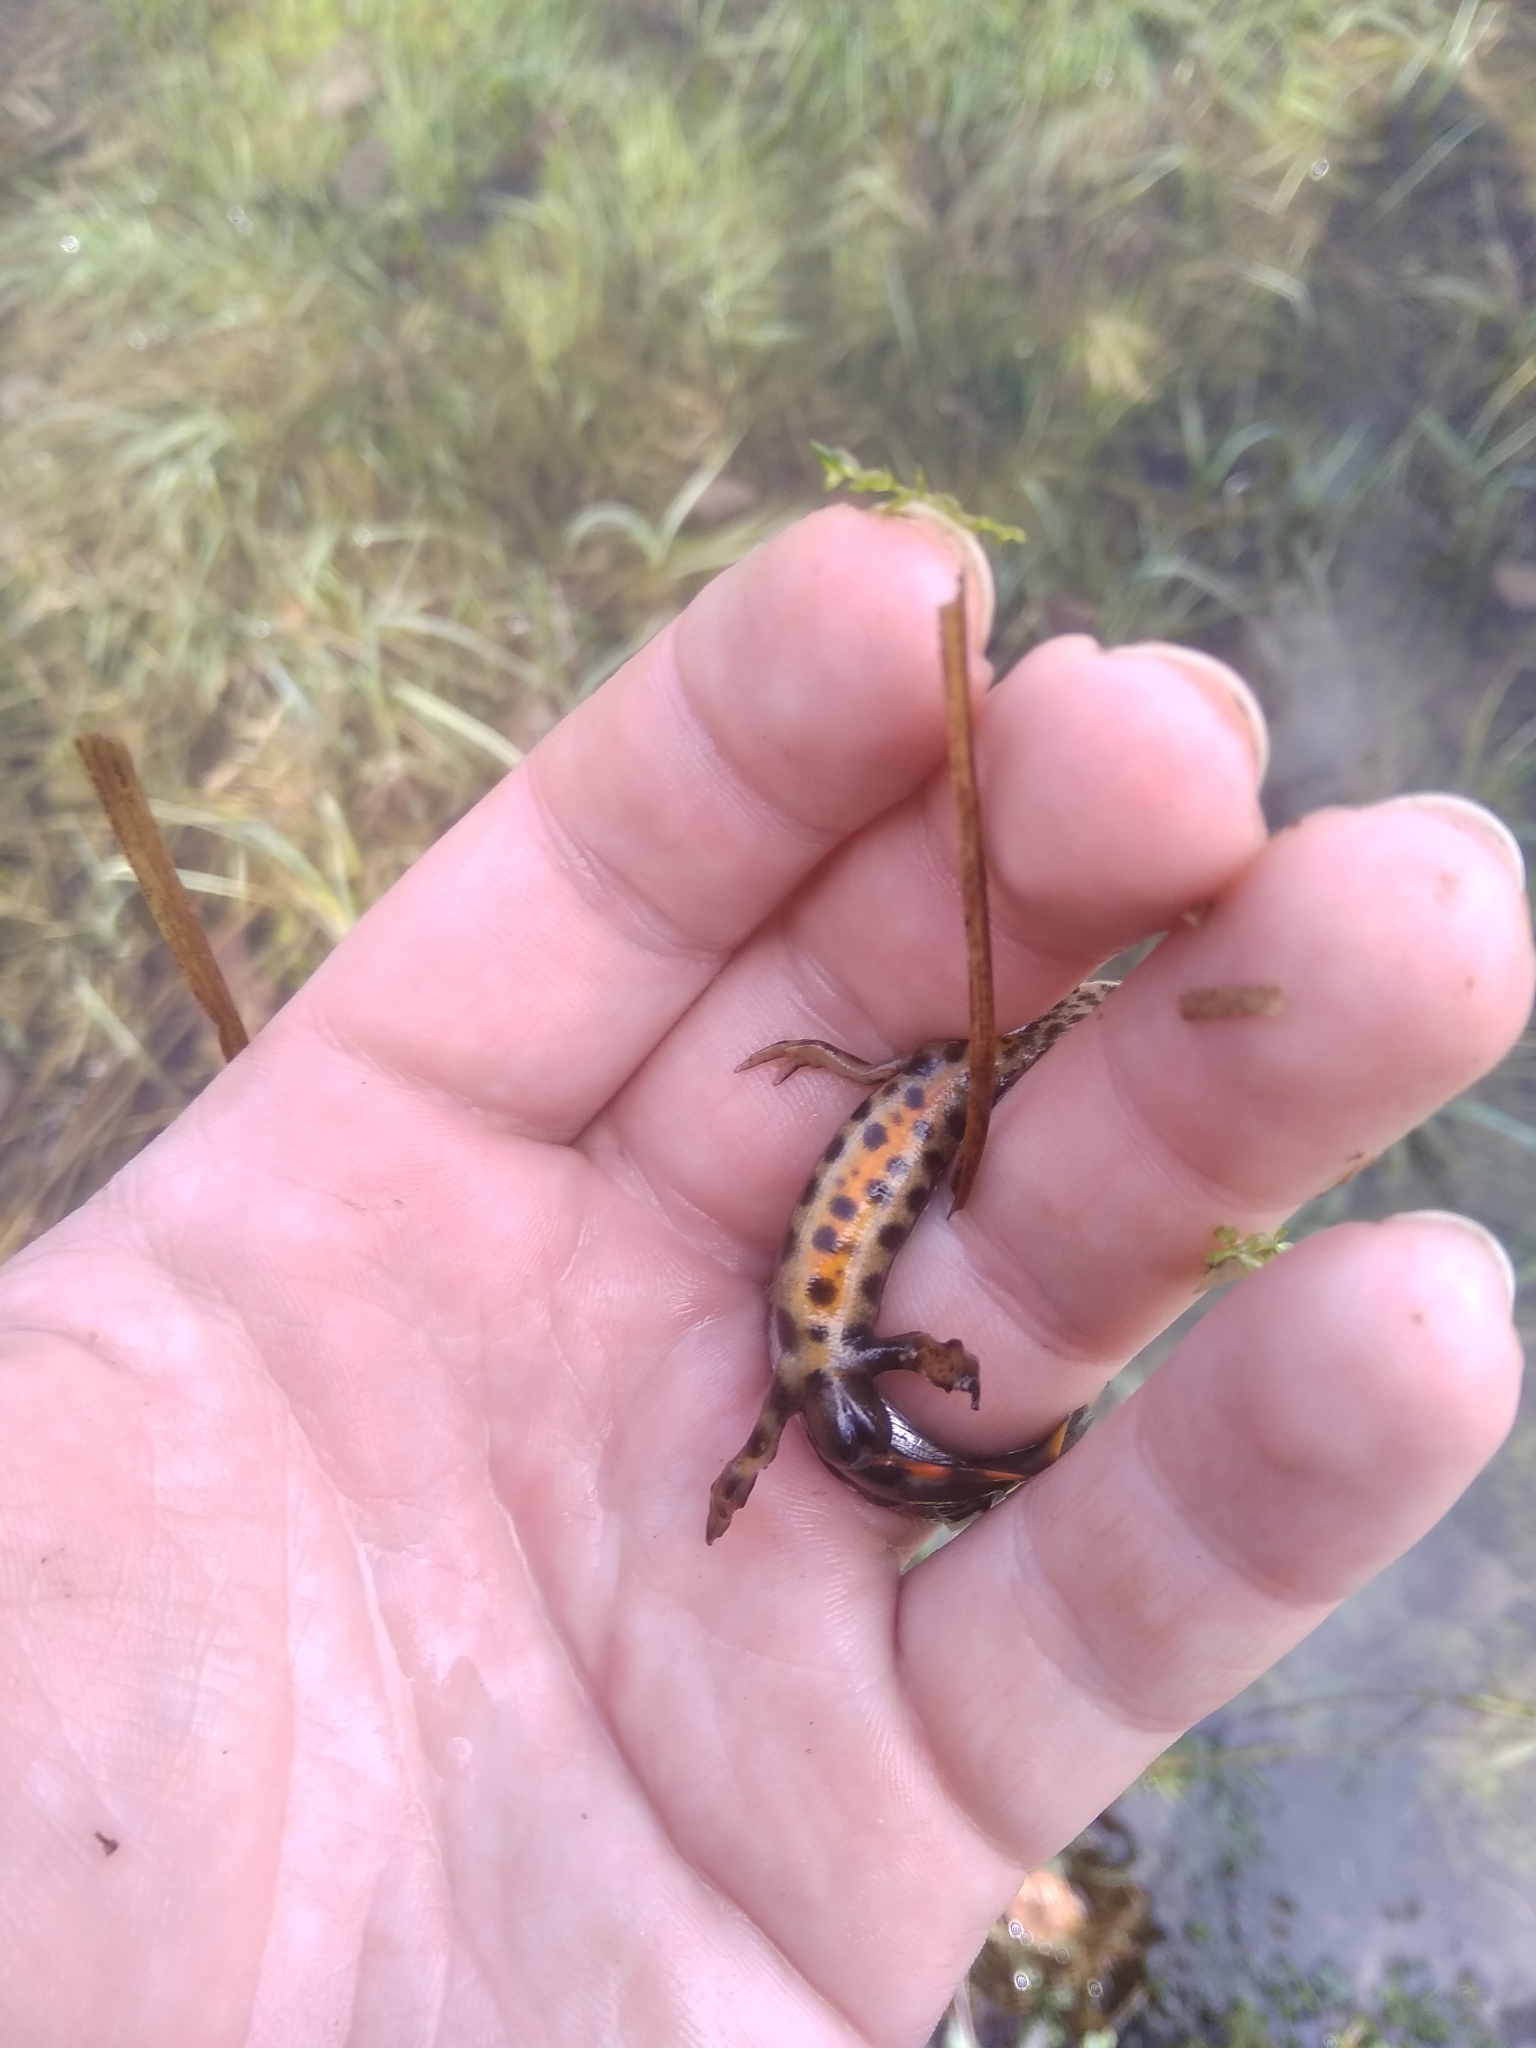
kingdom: Animalia
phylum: Chordata
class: Amphibia
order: Caudata
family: Salamandridae
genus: Lissotriton
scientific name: Lissotriton vulgaris
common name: Smooth newt
